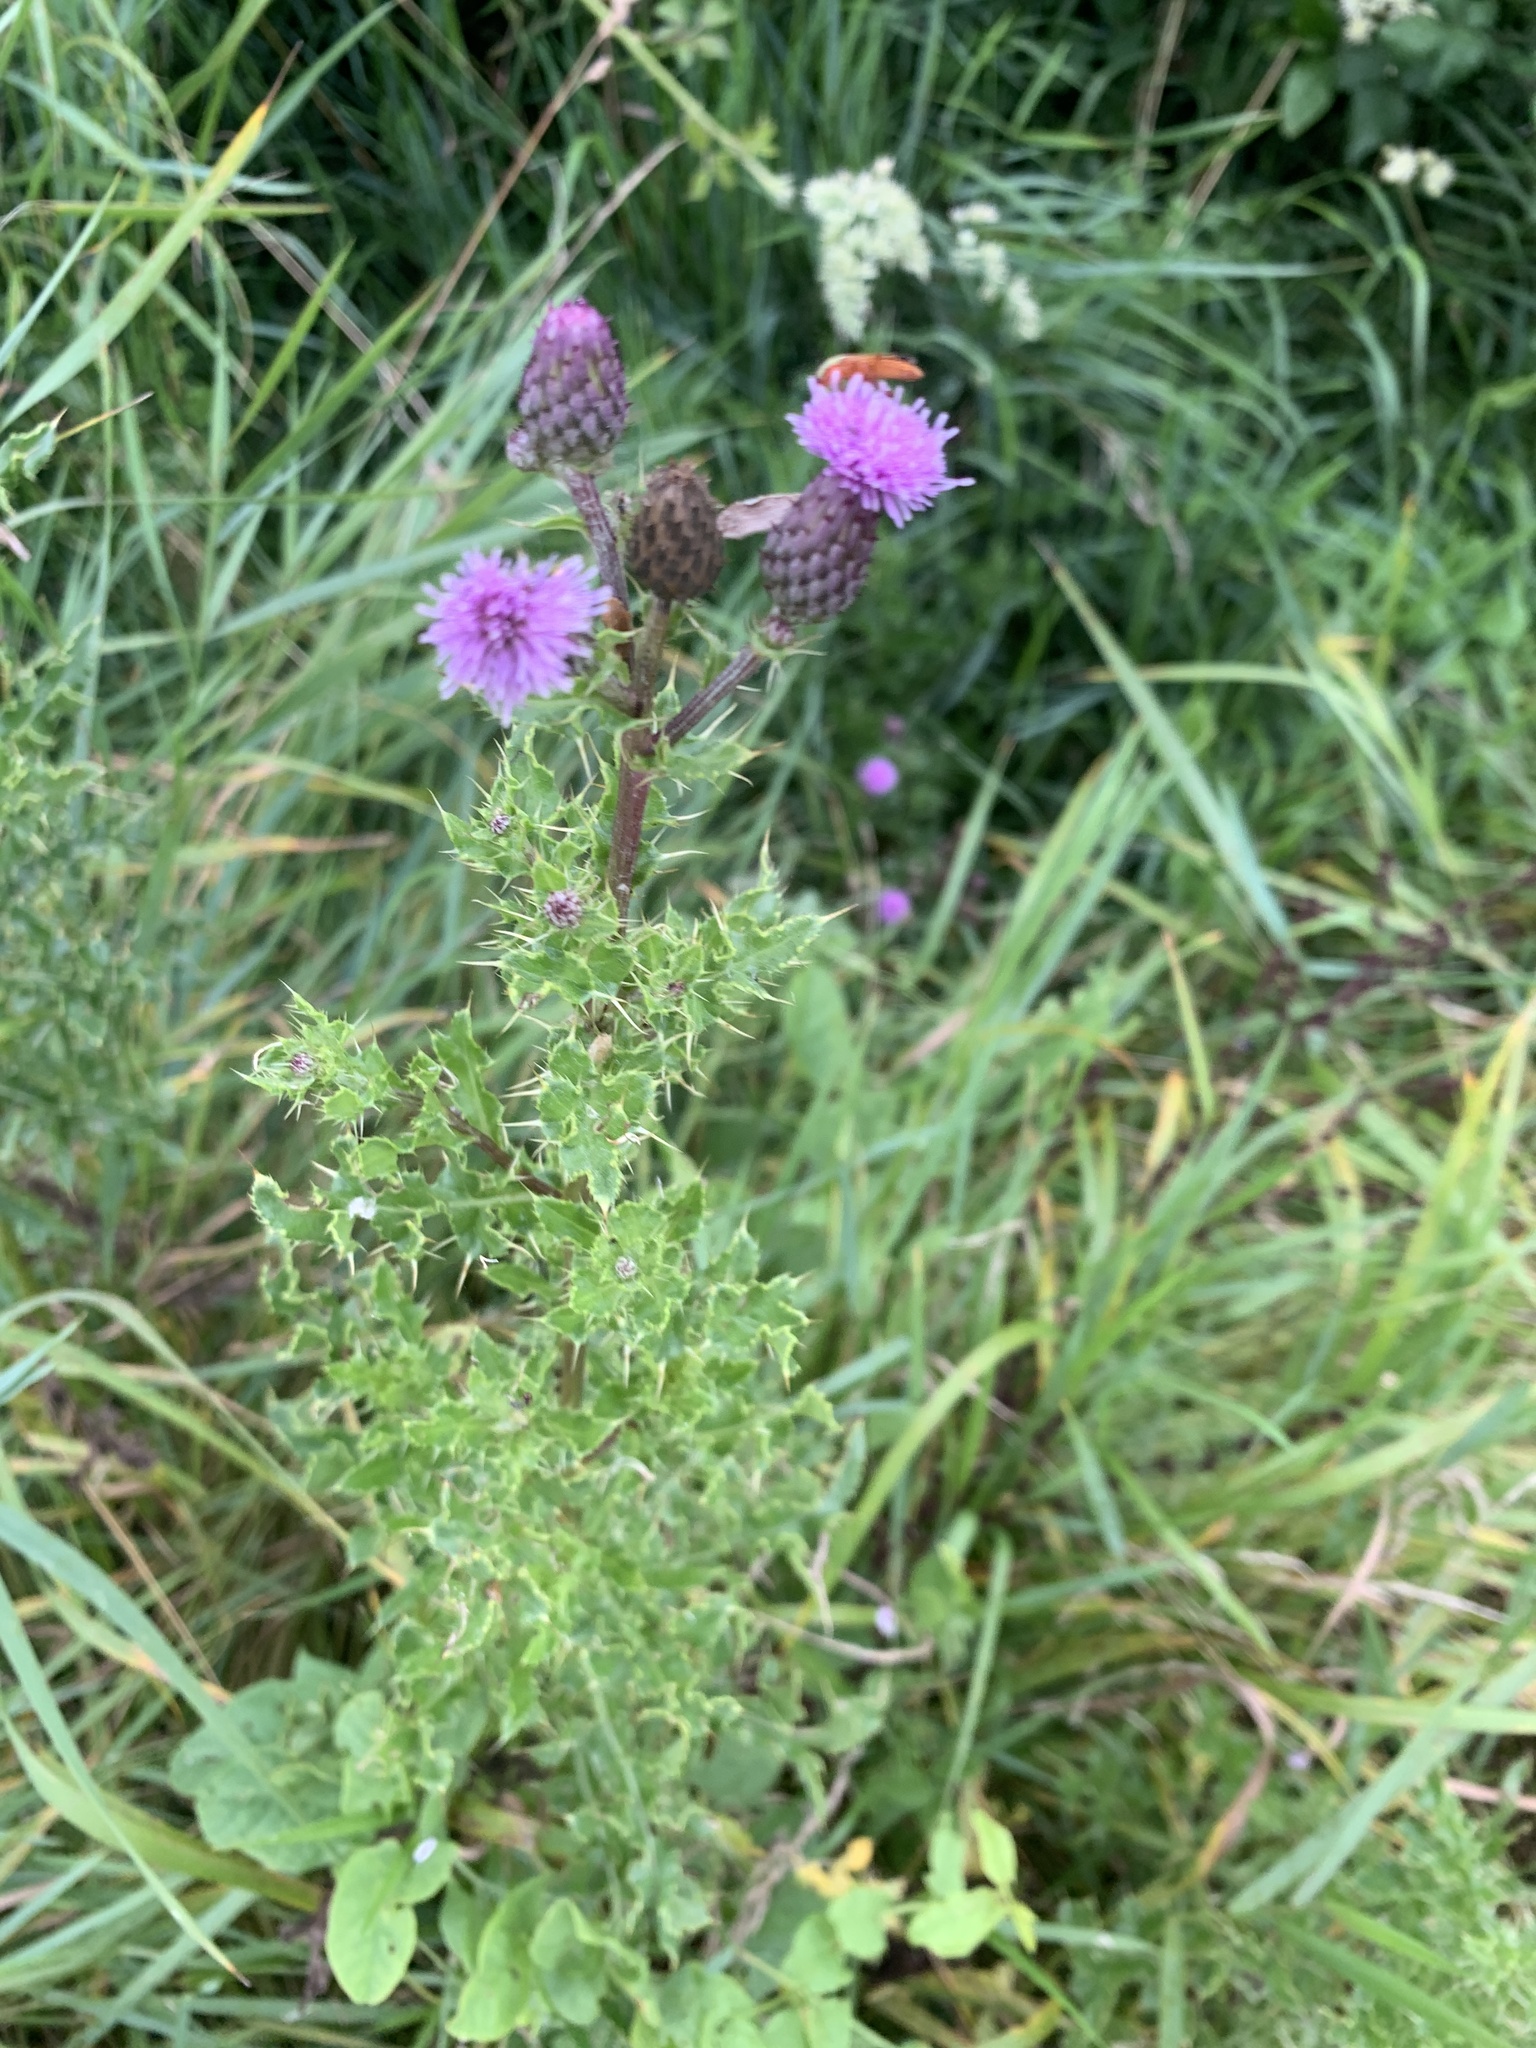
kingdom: Plantae
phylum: Tracheophyta
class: Magnoliopsida
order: Asterales
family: Asteraceae
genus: Cirsium
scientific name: Cirsium arvense
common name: Creeping thistle
